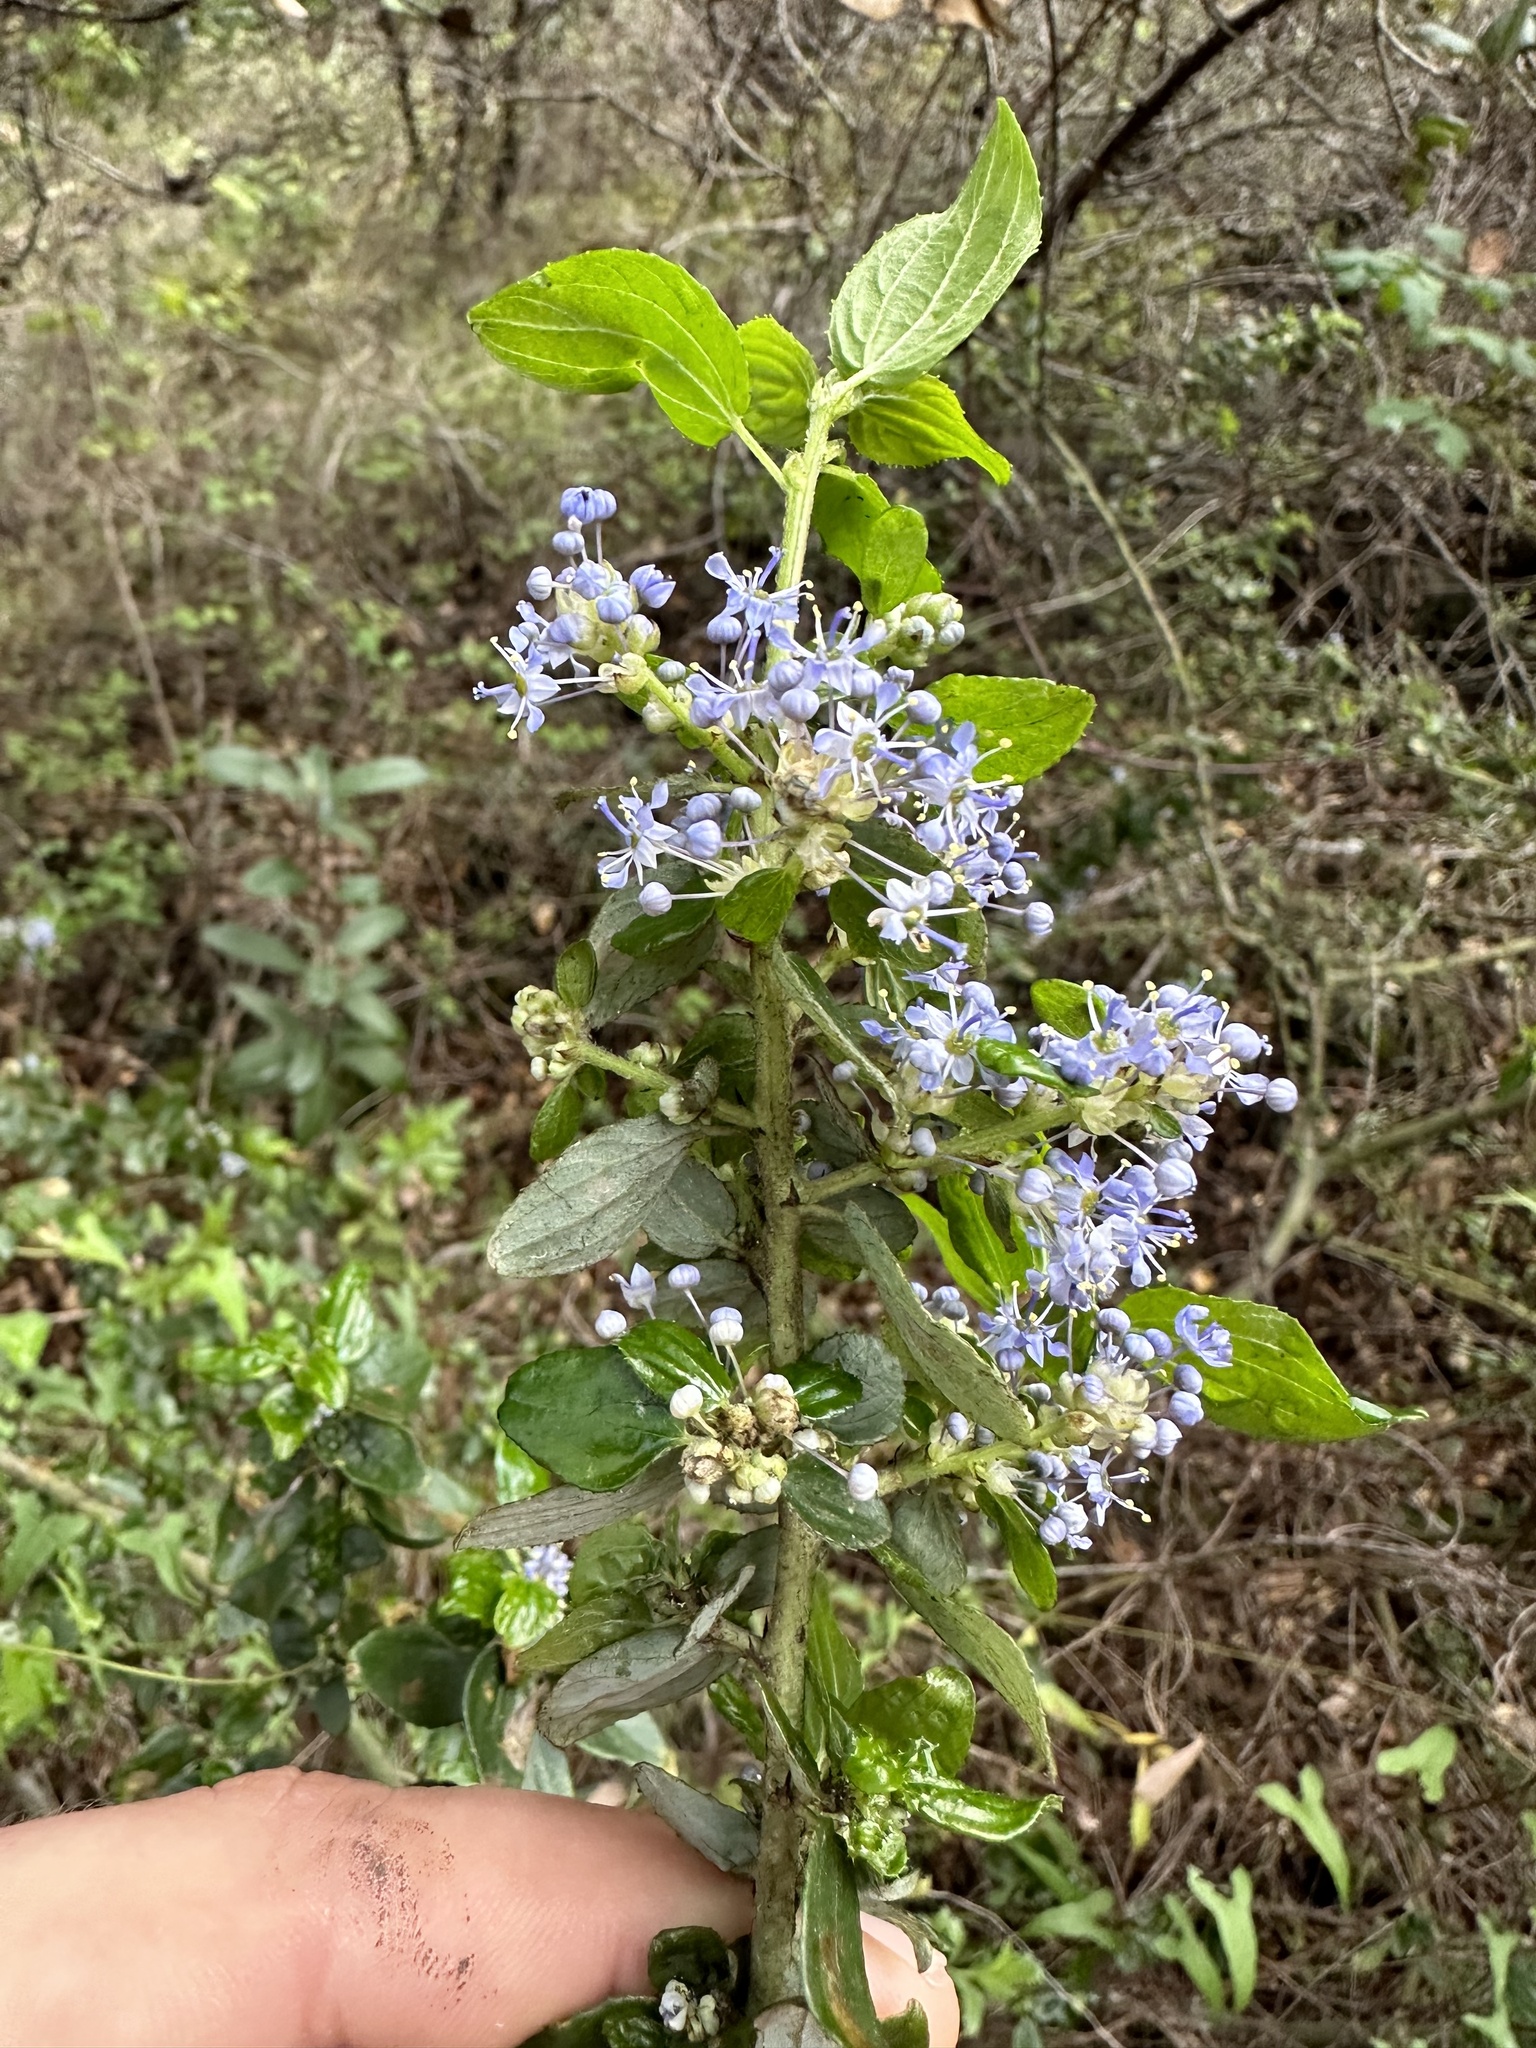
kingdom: Plantae
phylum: Tracheophyta
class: Magnoliopsida
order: Rosales
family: Rhamnaceae
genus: Ceanothus
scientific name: Ceanothus oliganthus
